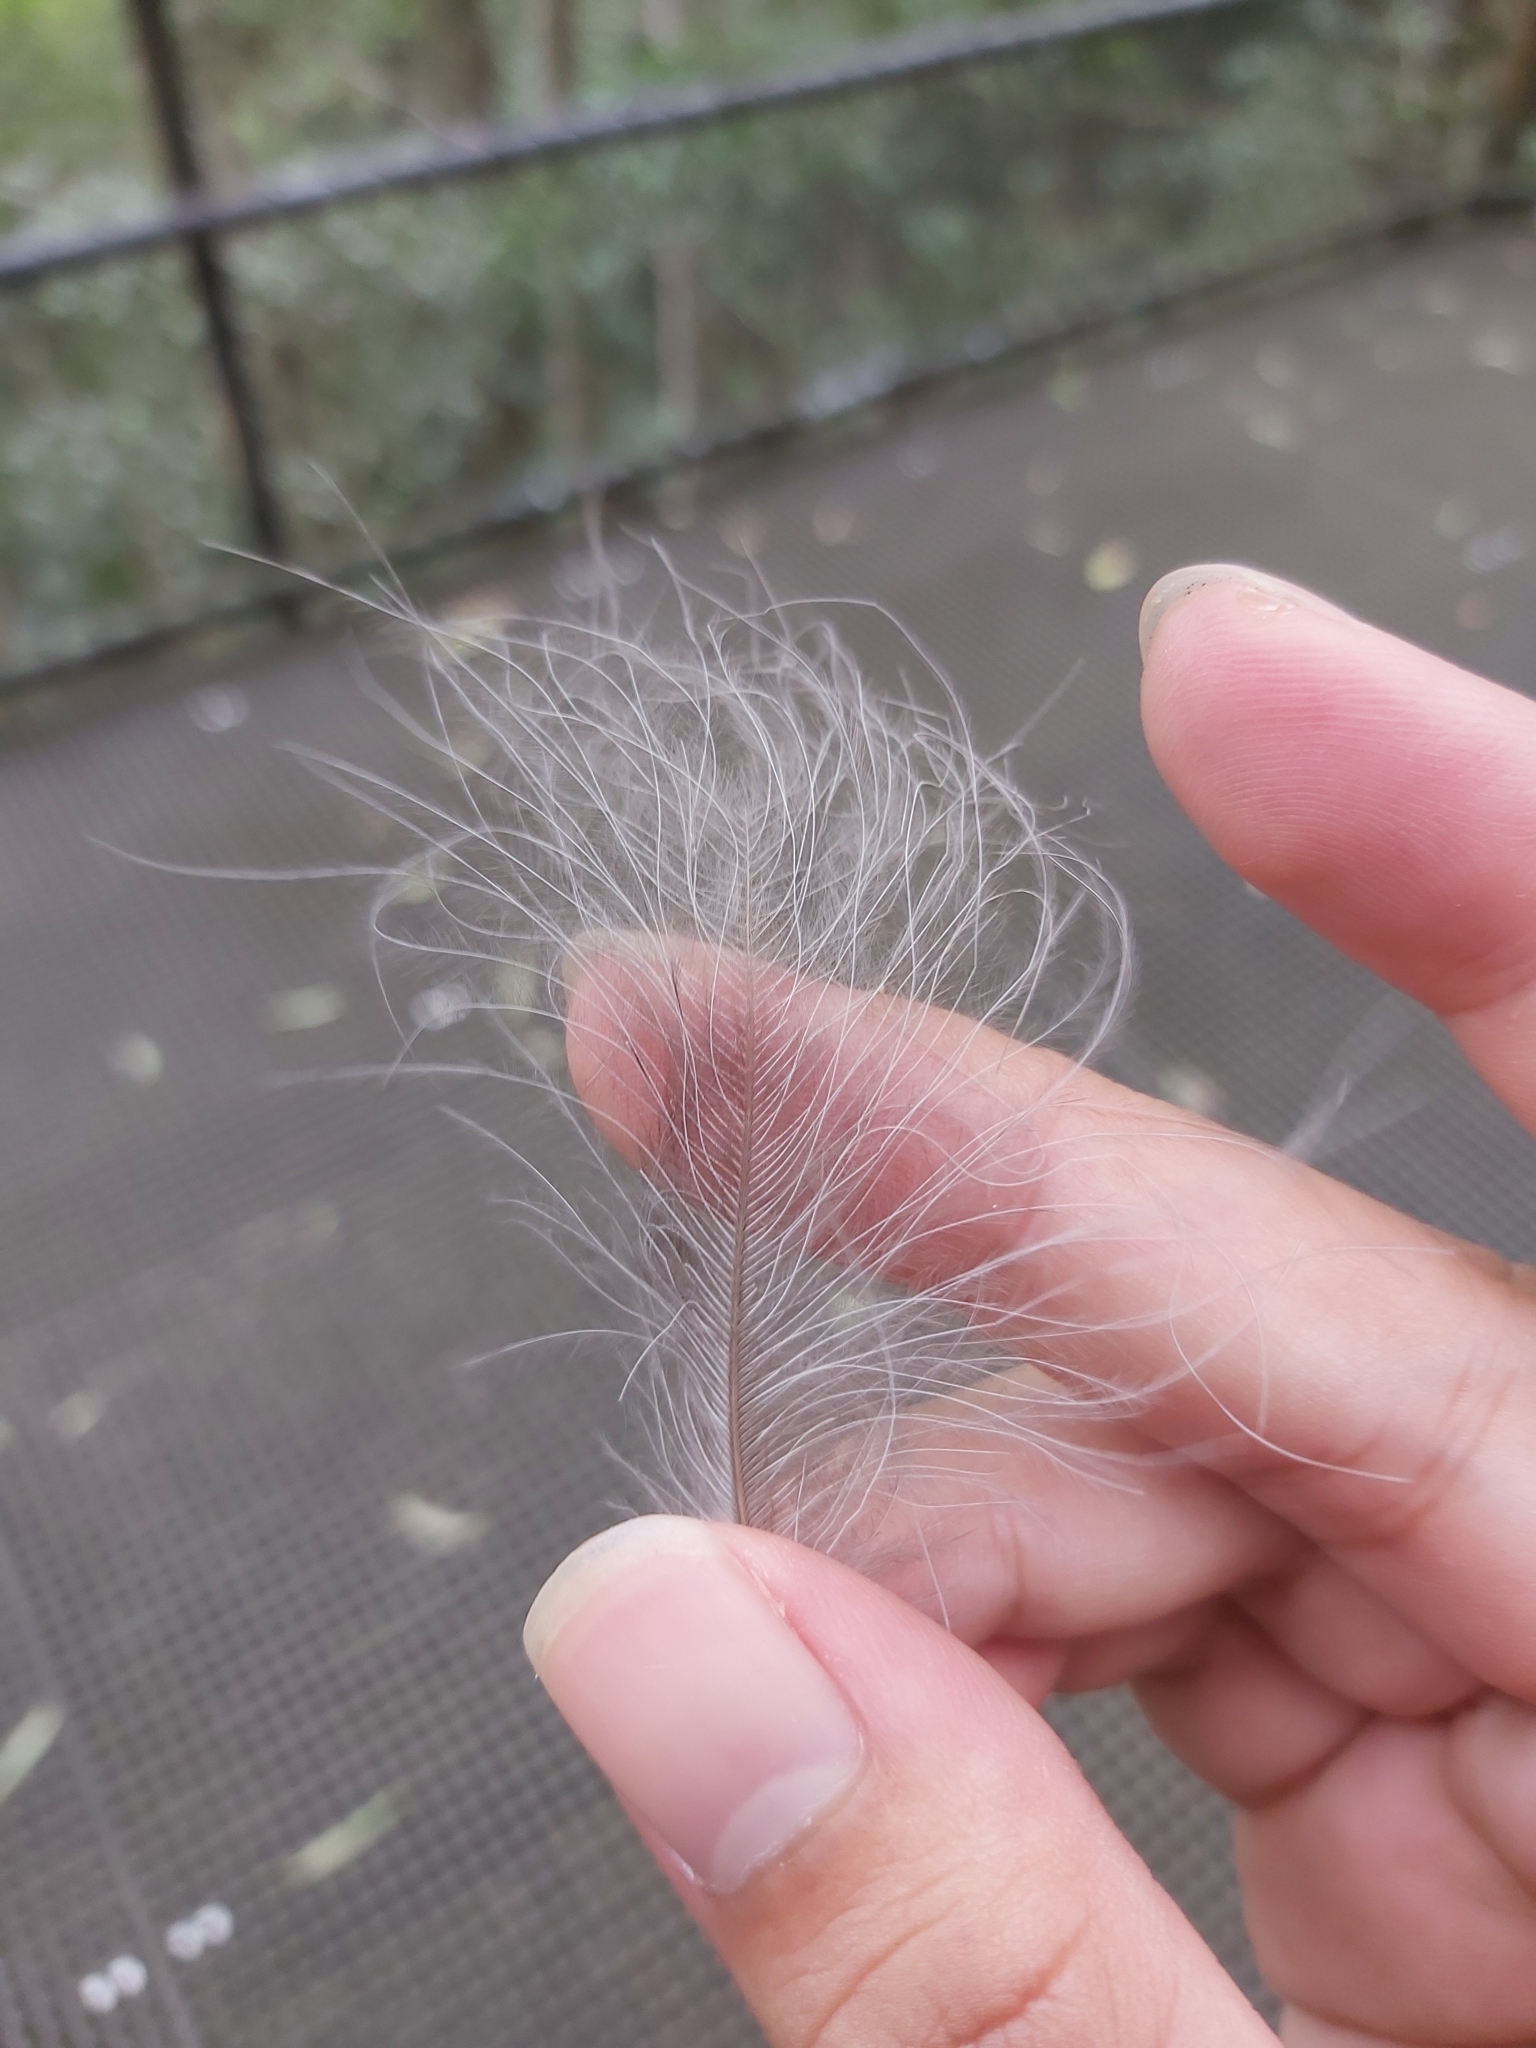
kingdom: Animalia
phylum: Chordata
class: Aves
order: Passeriformes
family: Menuridae
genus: Menura
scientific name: Menura novaehollandiae
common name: Superb lyrebird
